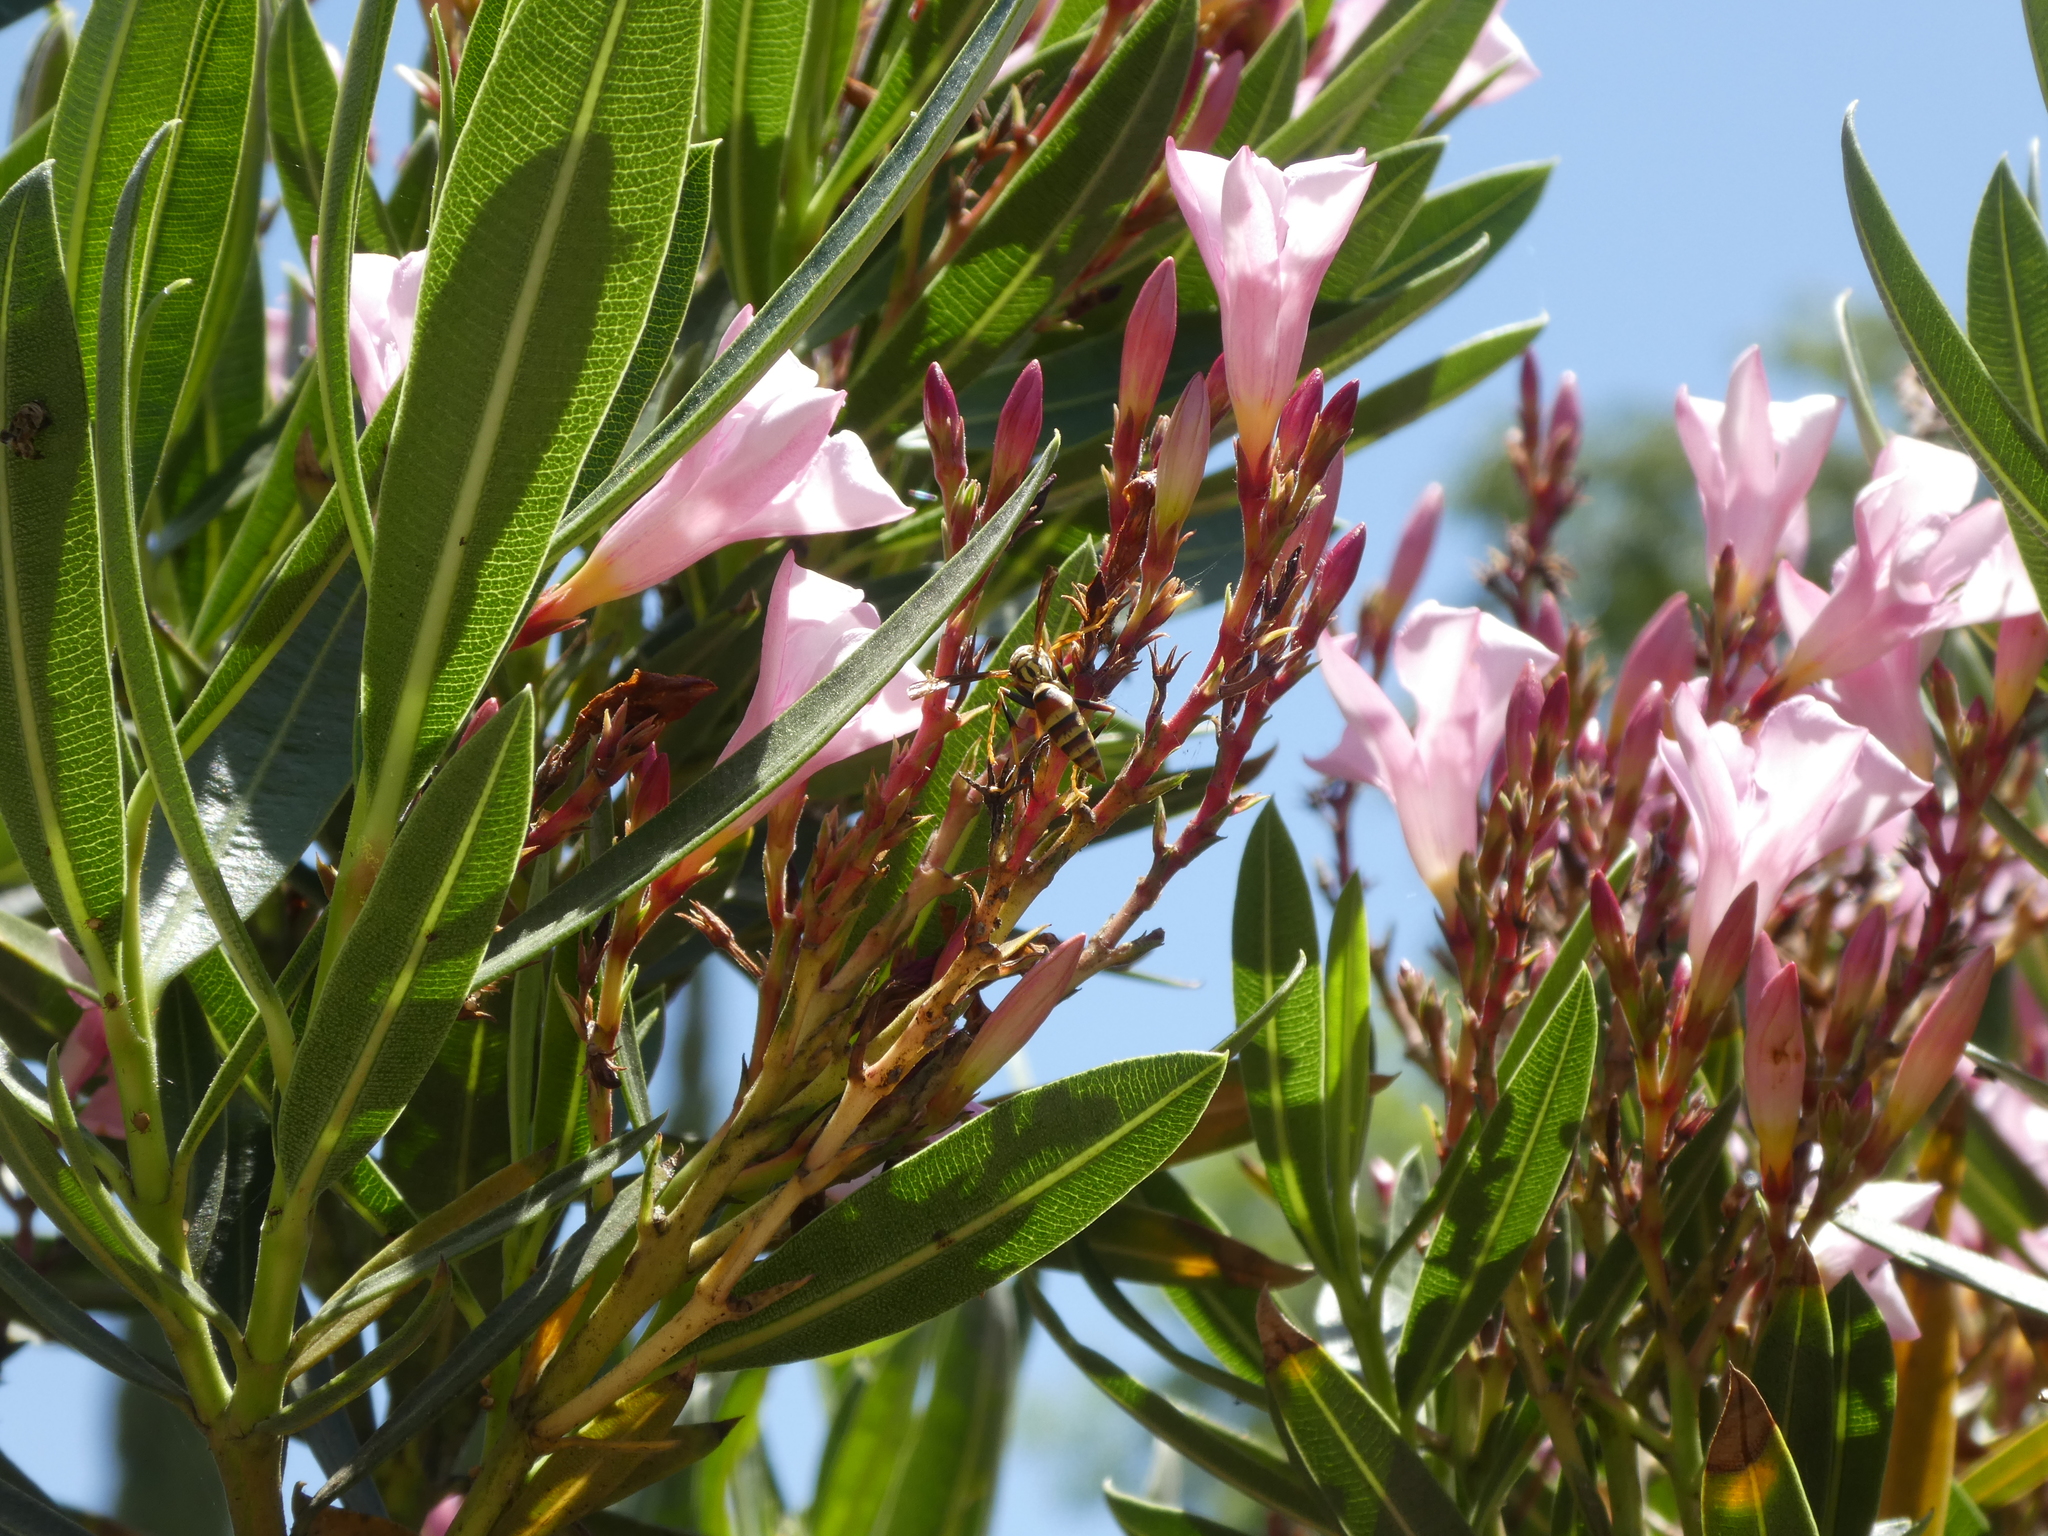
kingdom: Animalia
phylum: Arthropoda
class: Insecta
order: Hymenoptera
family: Eumenidae
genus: Polistes
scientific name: Polistes exclamans
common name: Paper wasp
